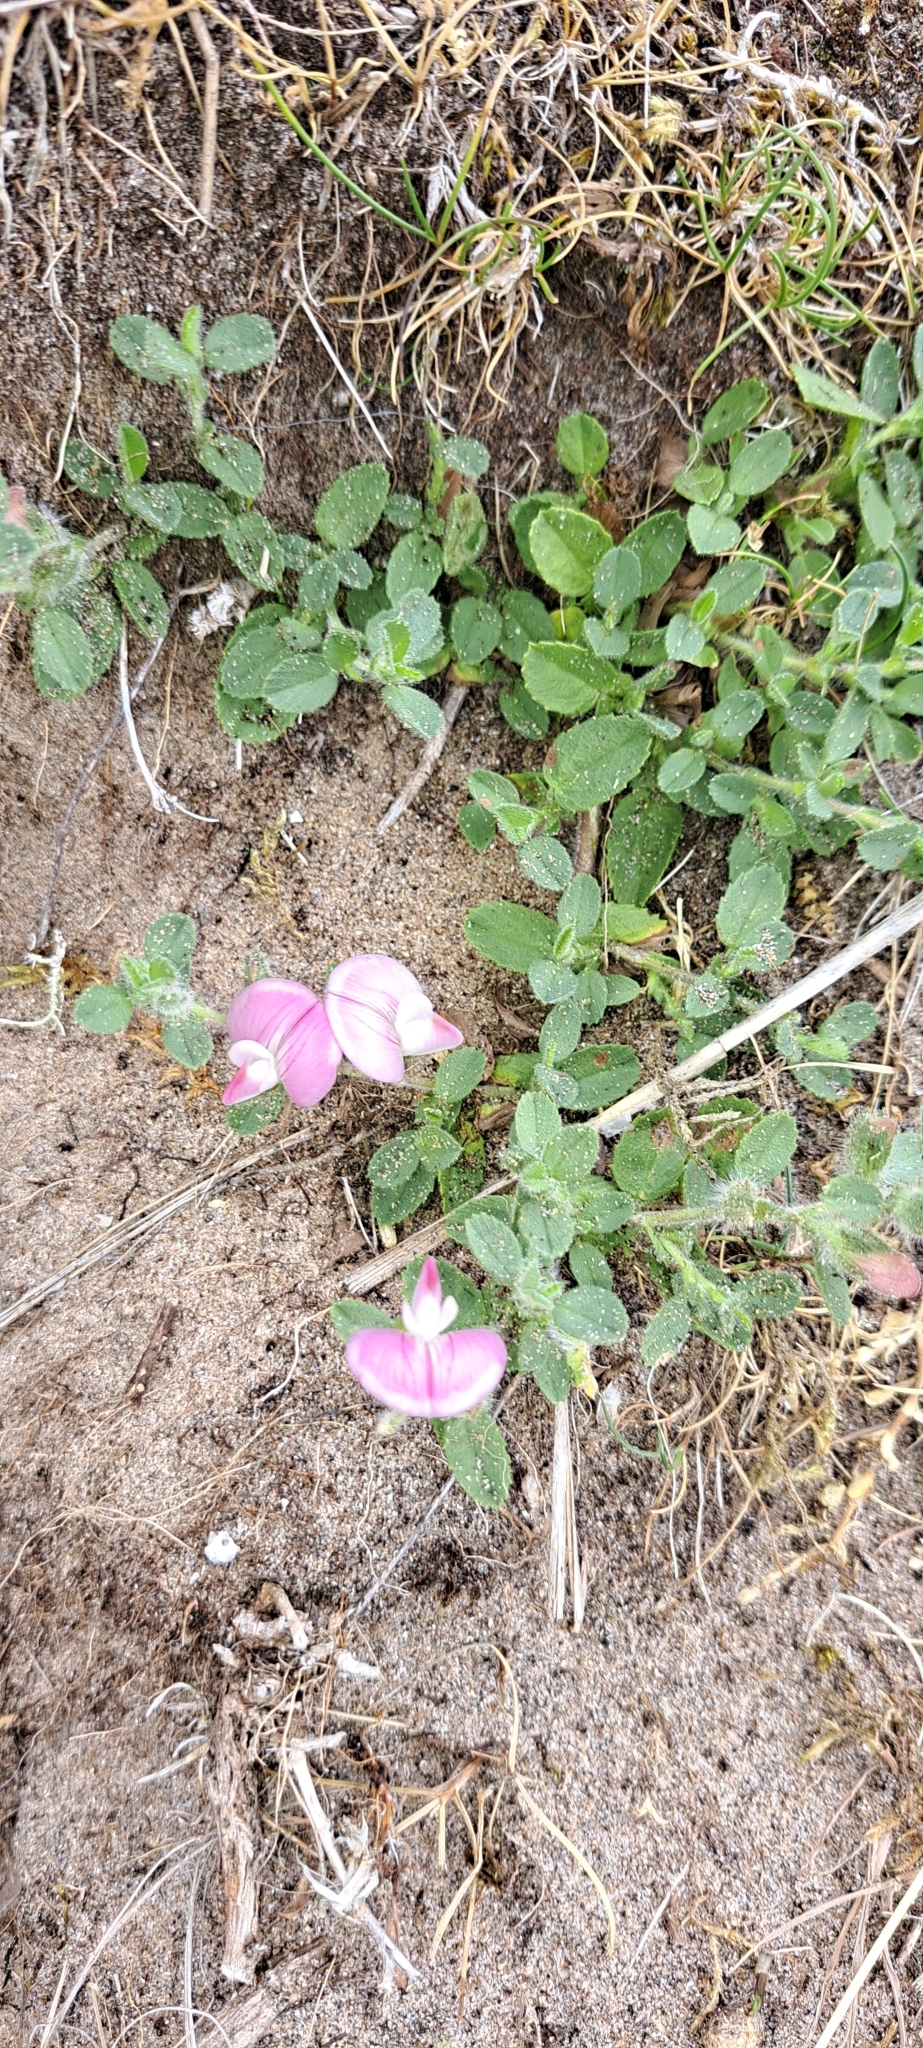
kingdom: Plantae
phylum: Tracheophyta
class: Magnoliopsida
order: Fabales
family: Fabaceae
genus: Ononis
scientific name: Ononis spinosa
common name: Spiny restharrow
